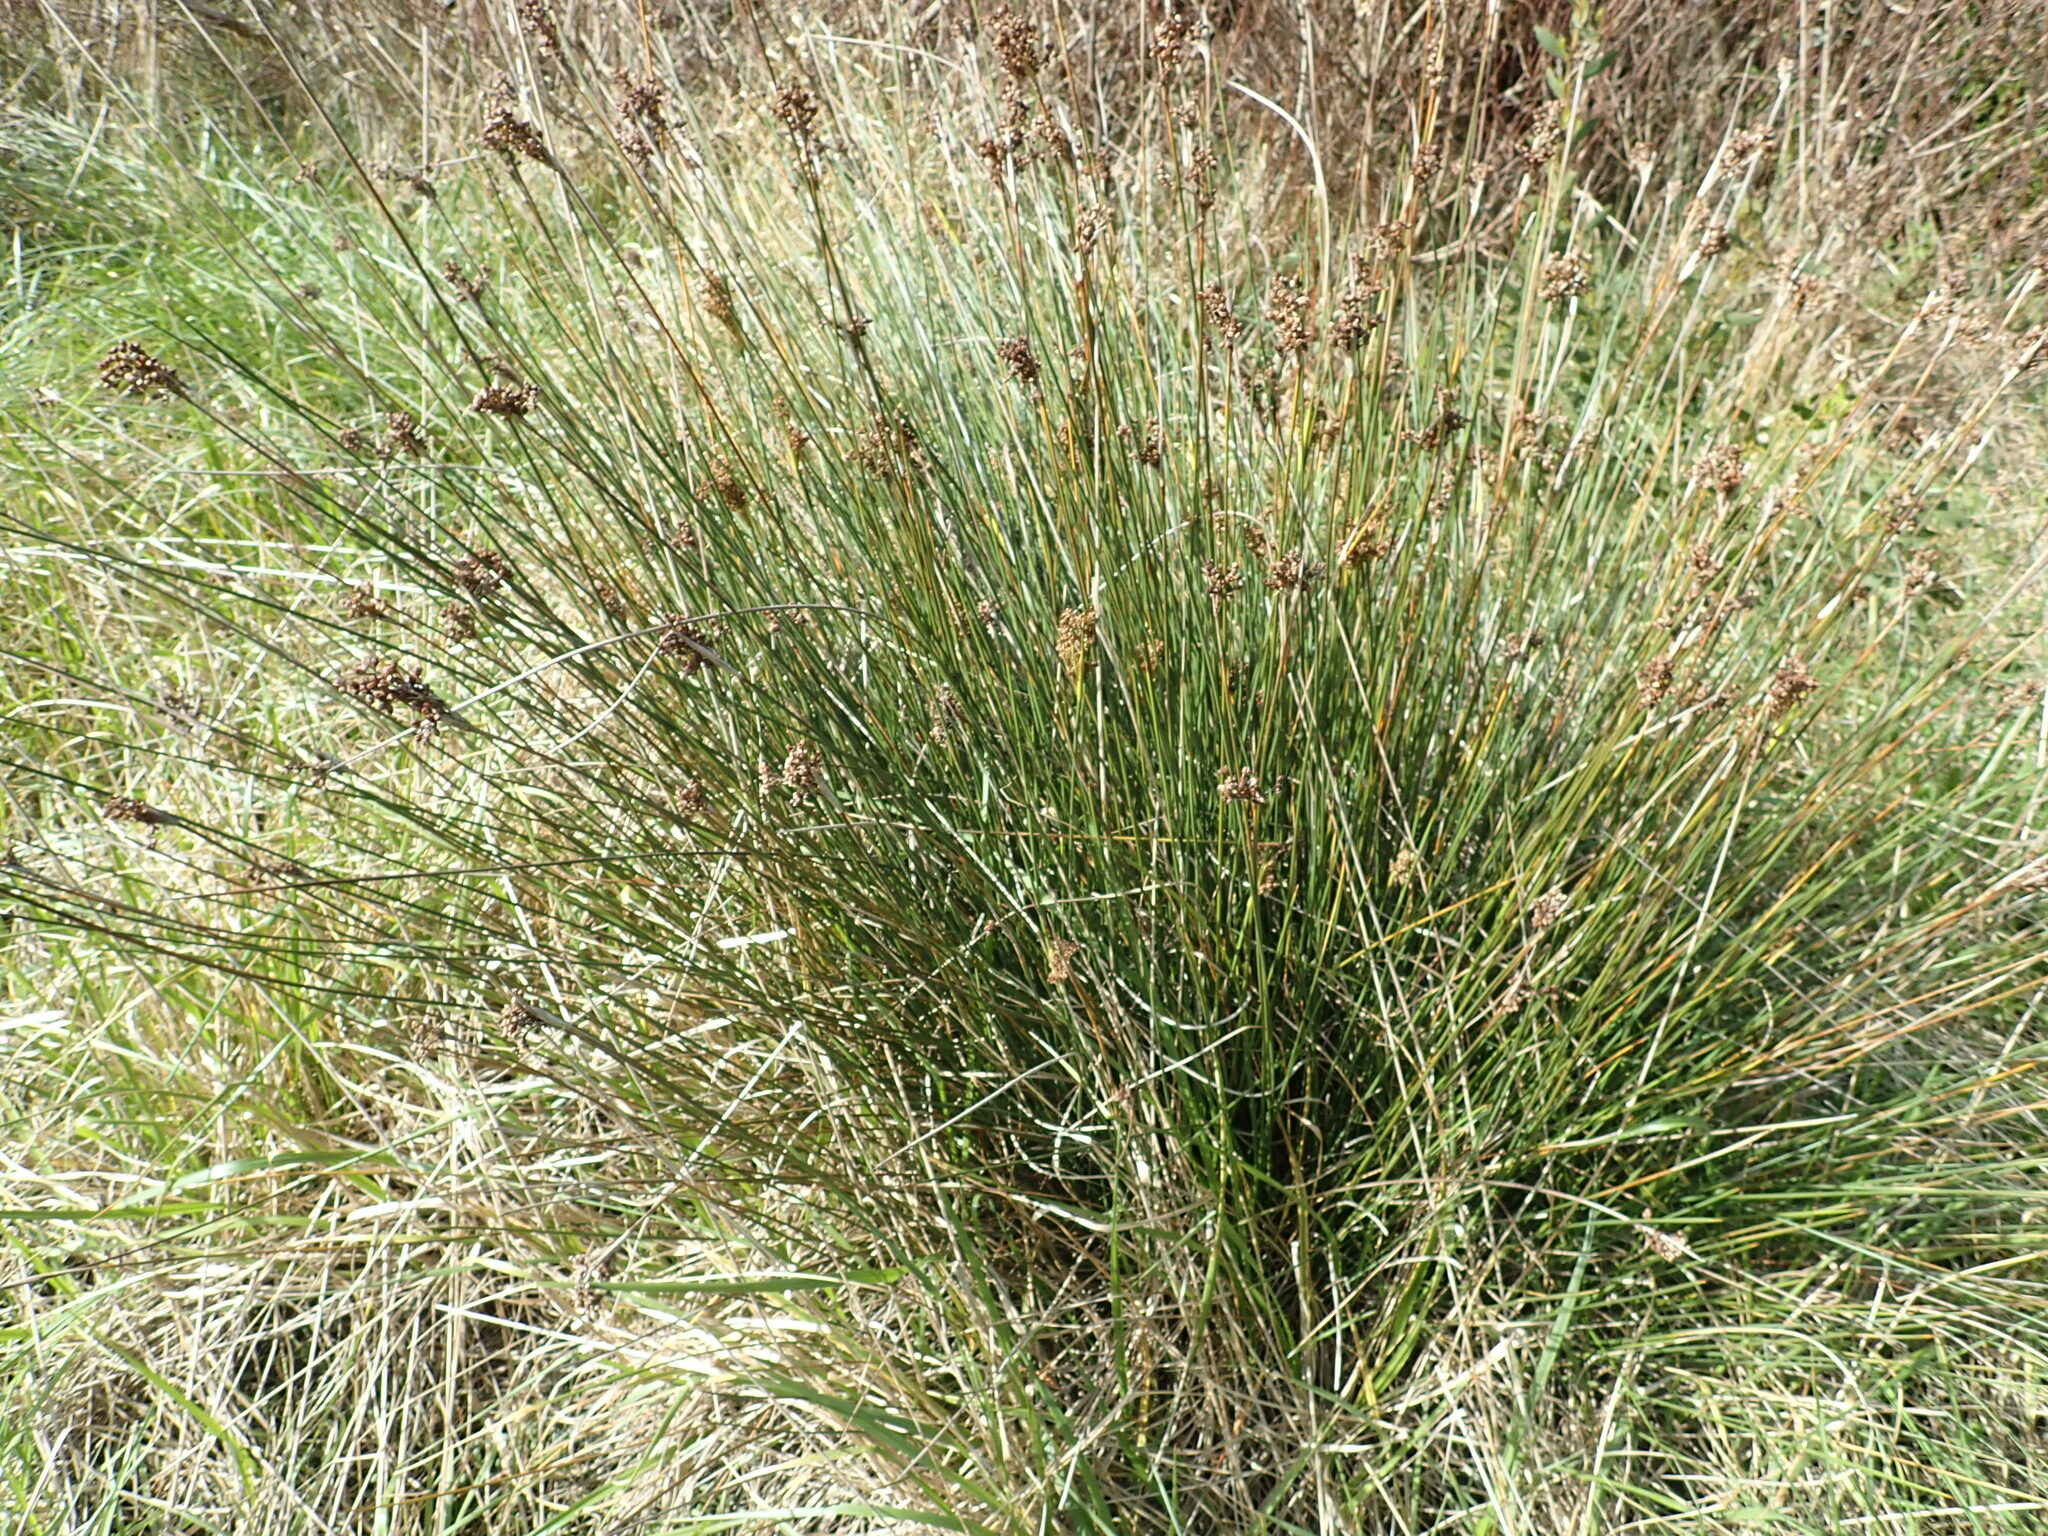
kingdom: Plantae
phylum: Tracheophyta
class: Liliopsida
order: Poales
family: Juncaceae
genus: Juncus
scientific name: Juncus acutus
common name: Sharp rush
